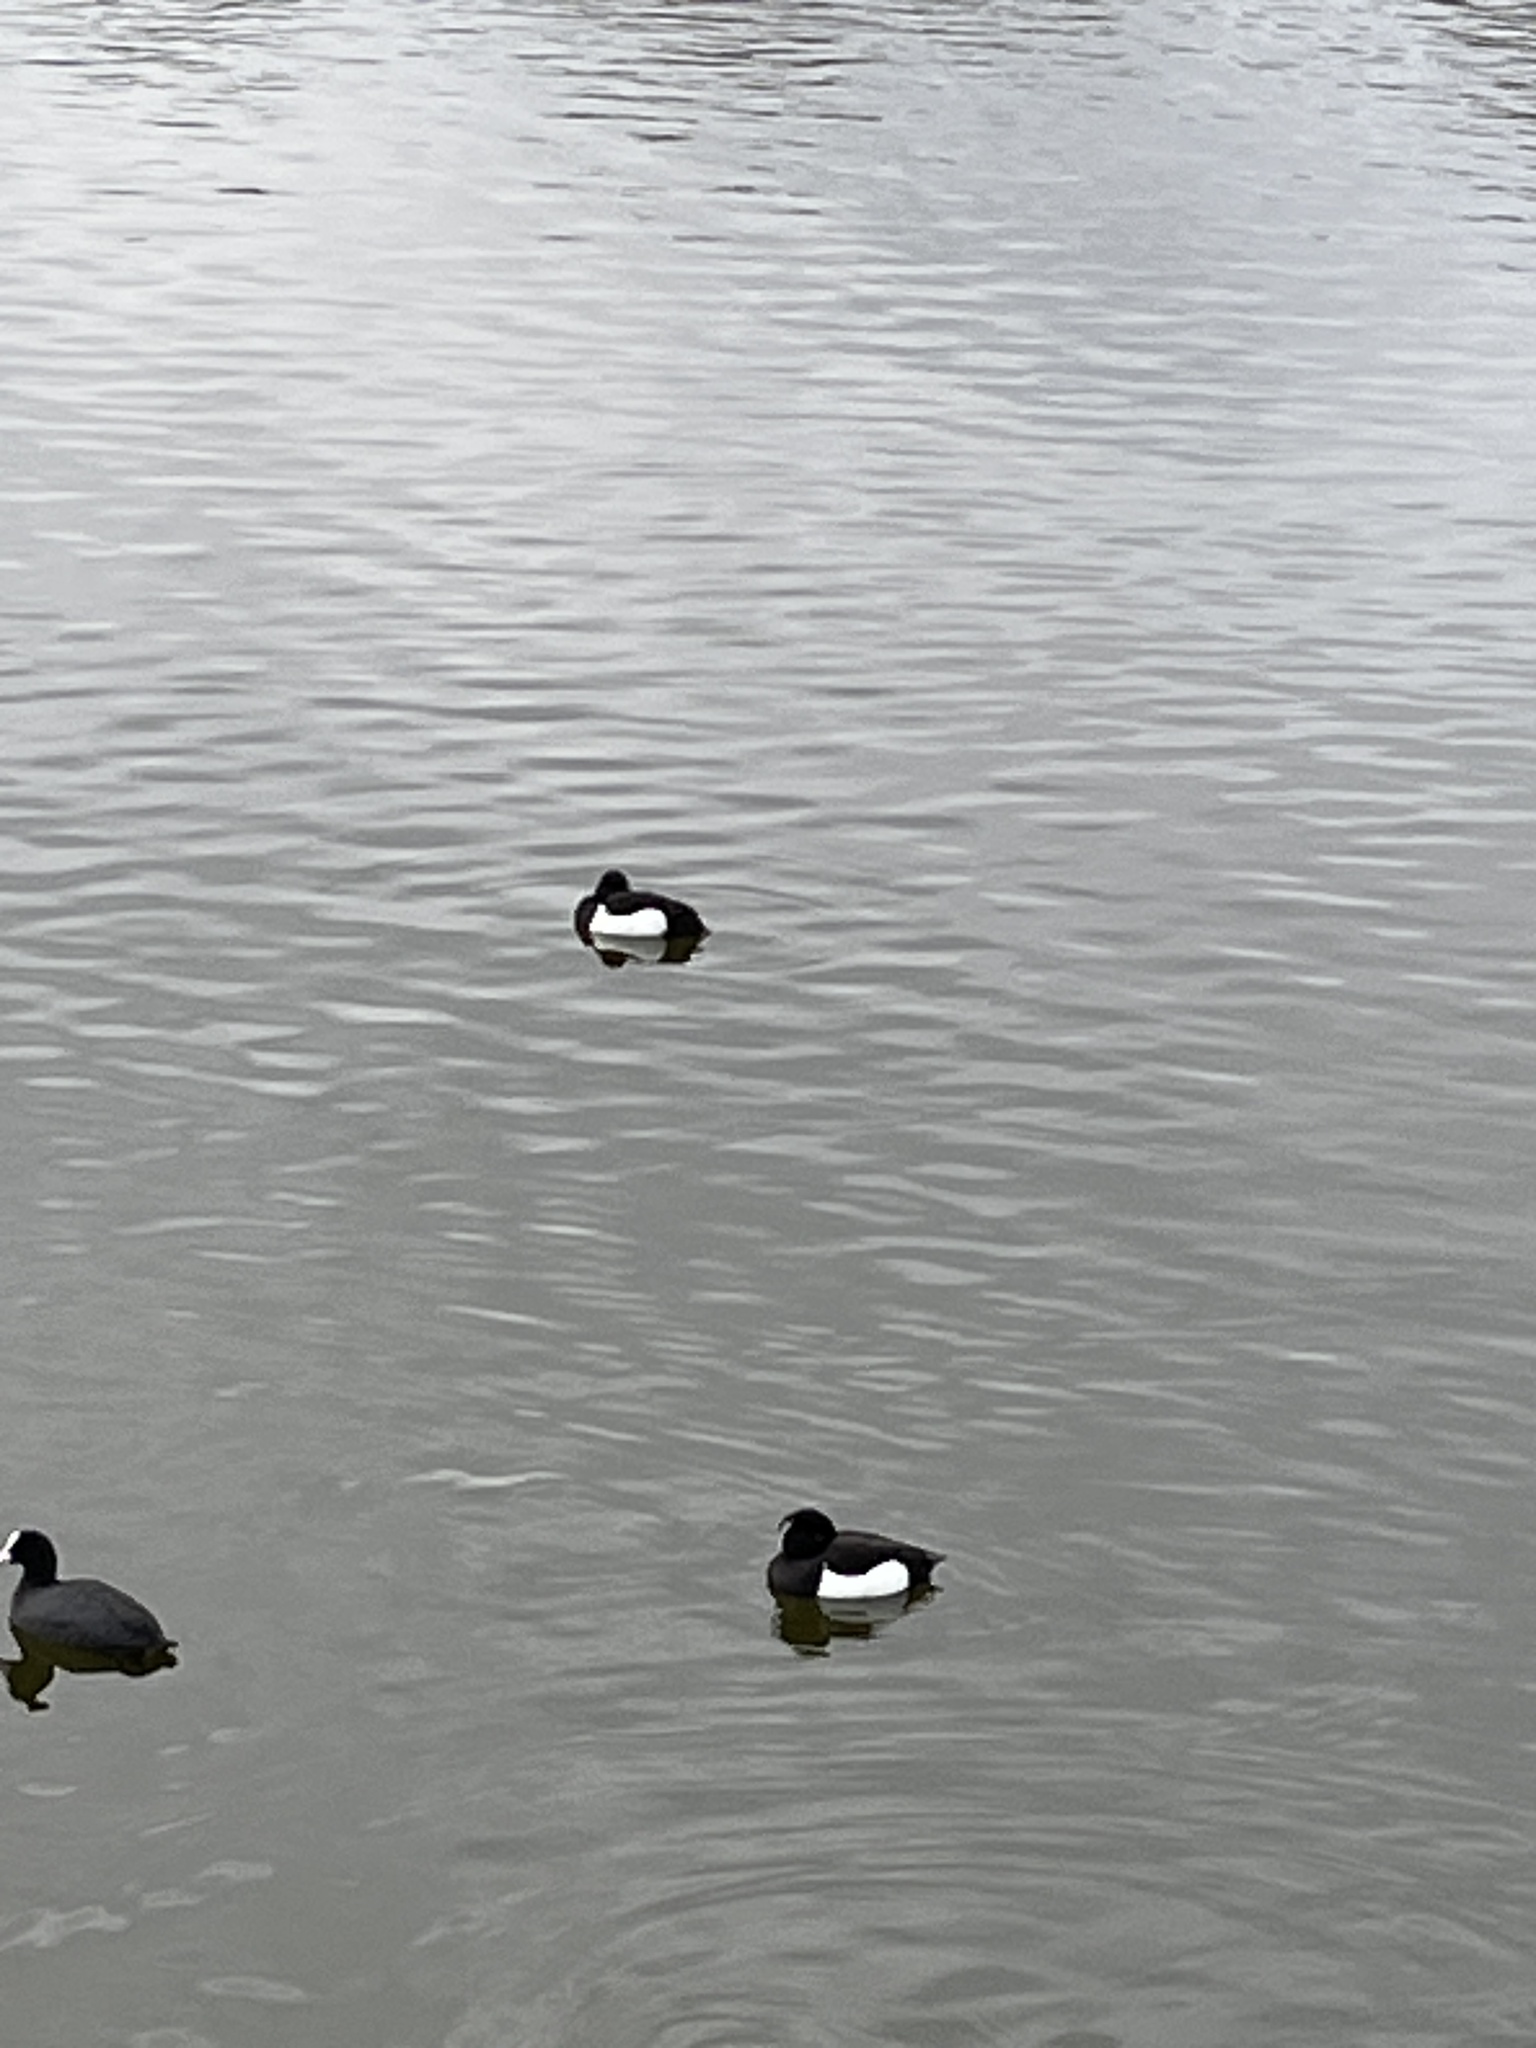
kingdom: Animalia
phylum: Chordata
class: Aves
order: Anseriformes
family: Anatidae
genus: Aythya
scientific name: Aythya fuligula
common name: Tufted duck
